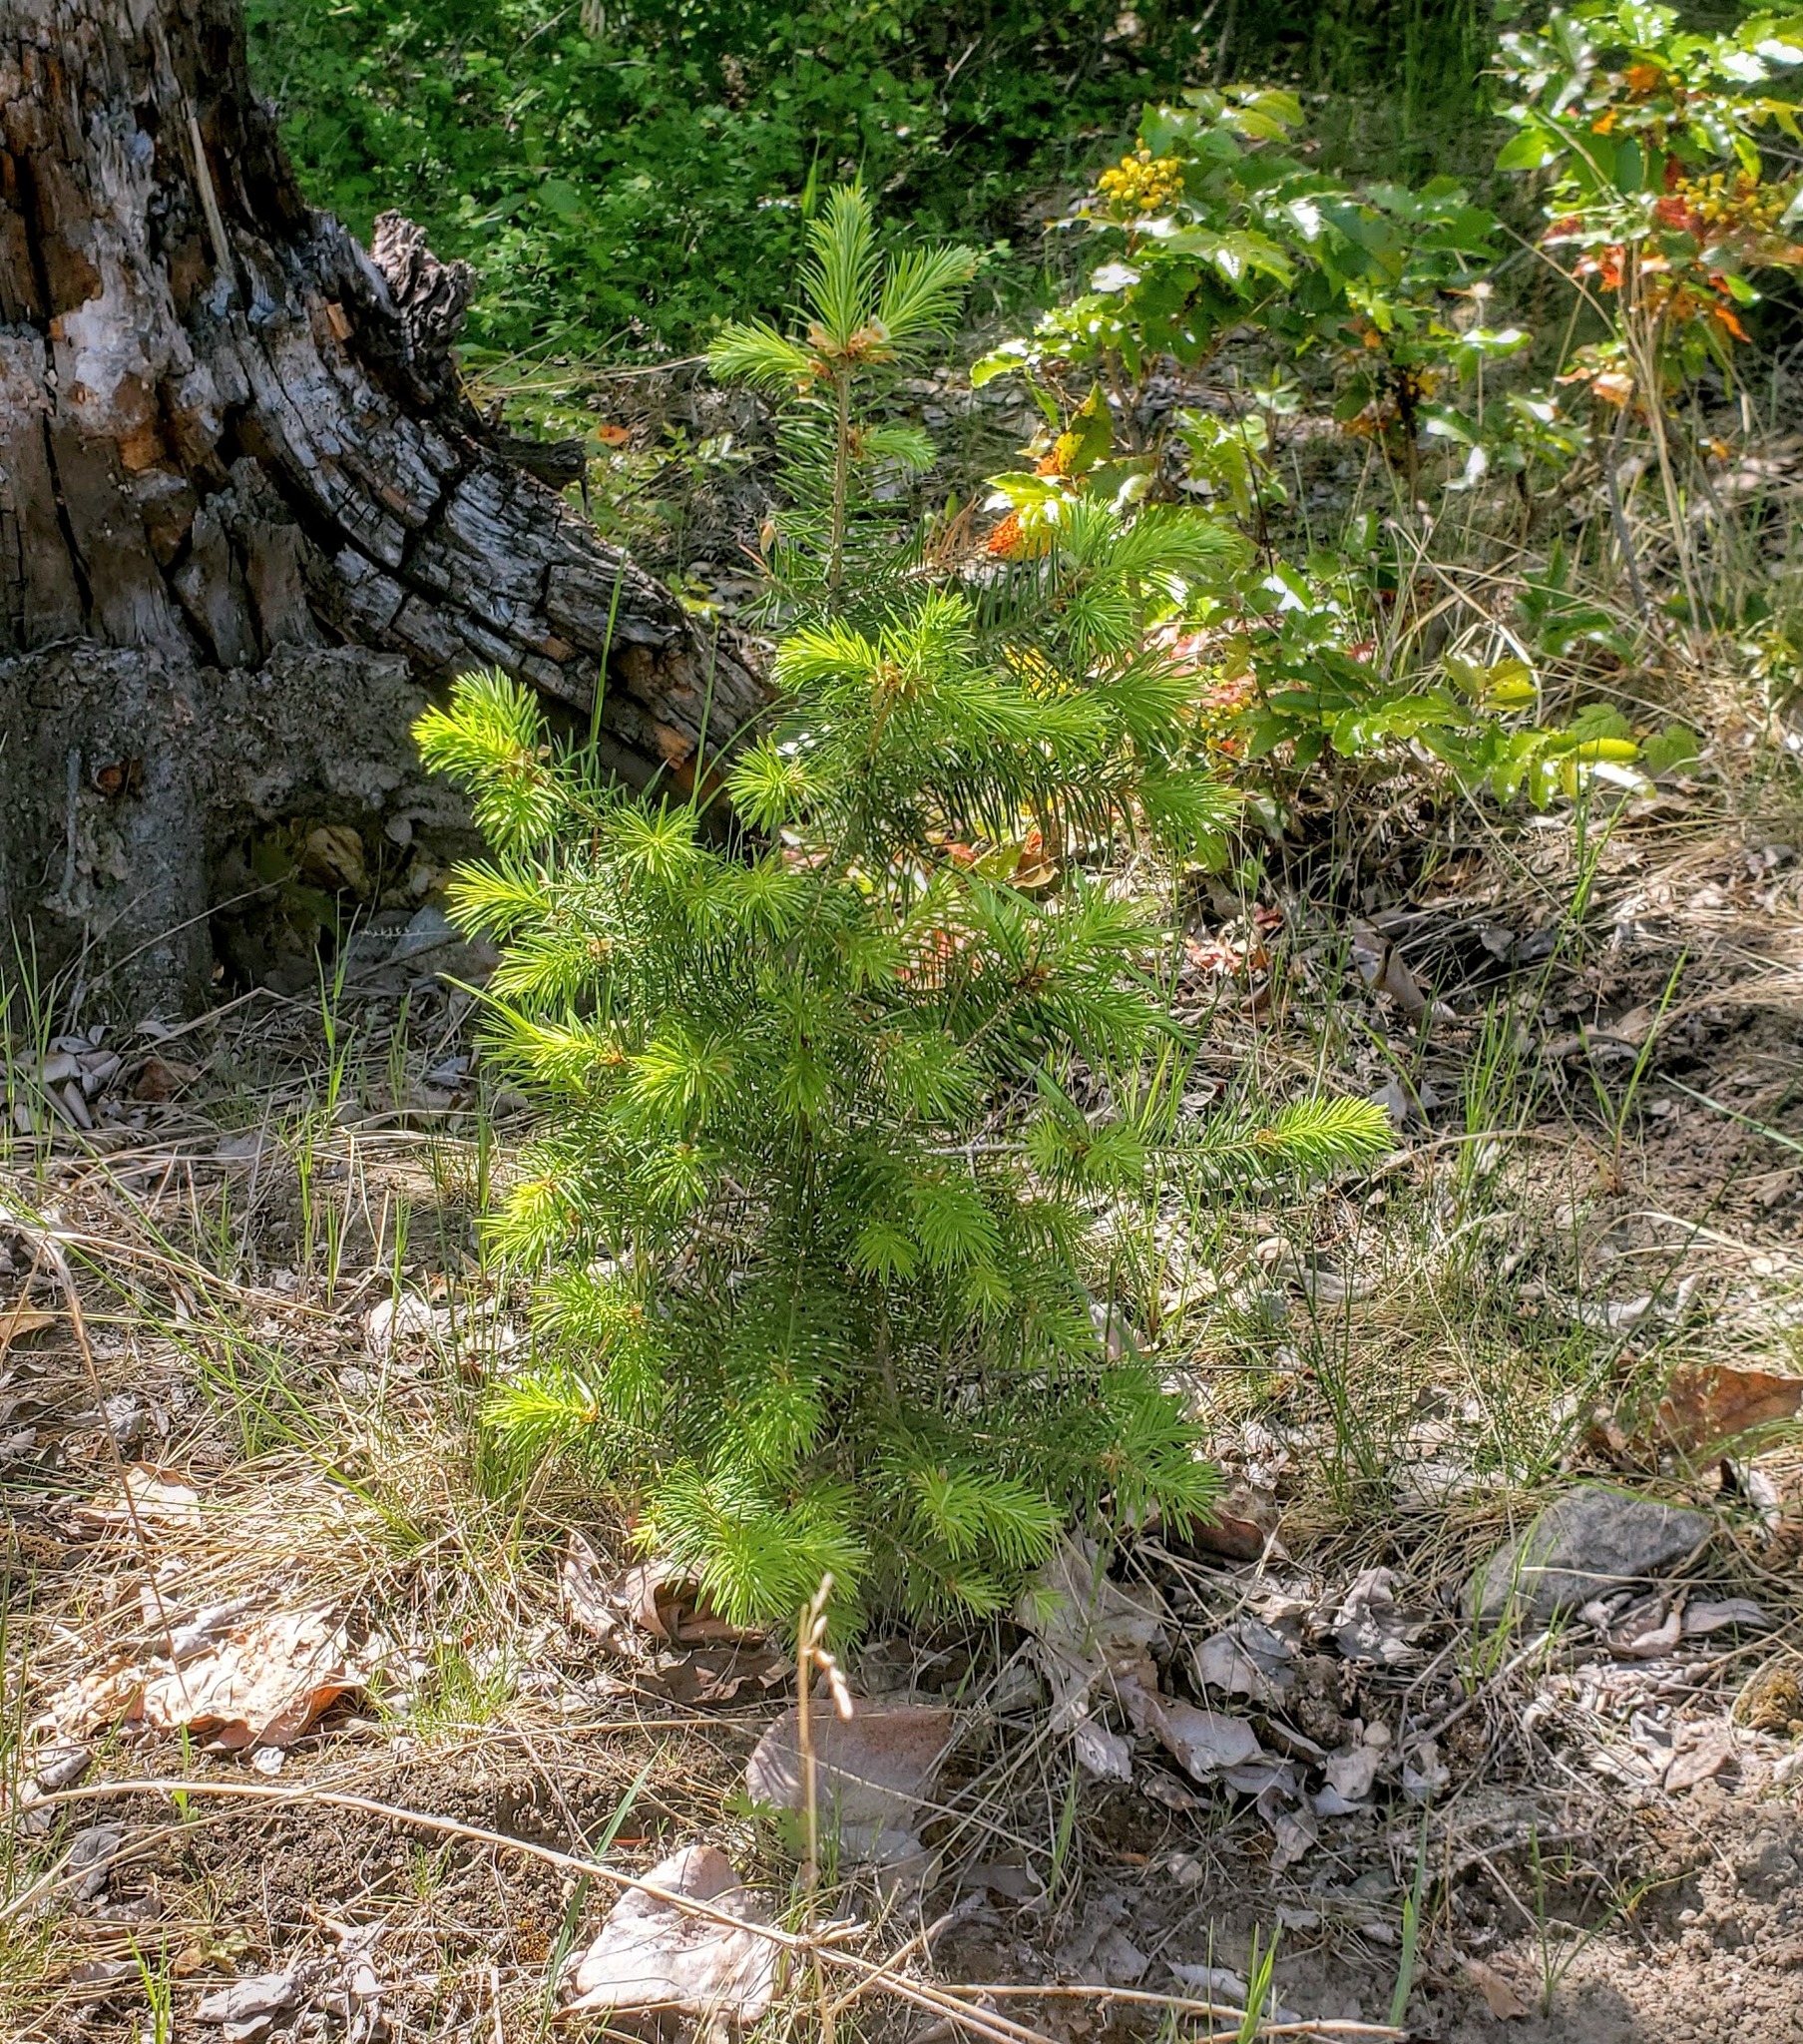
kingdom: Plantae
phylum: Tracheophyta
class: Pinopsida
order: Pinales
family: Pinaceae
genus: Pseudotsuga
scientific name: Pseudotsuga menziesii
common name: Douglas fir
